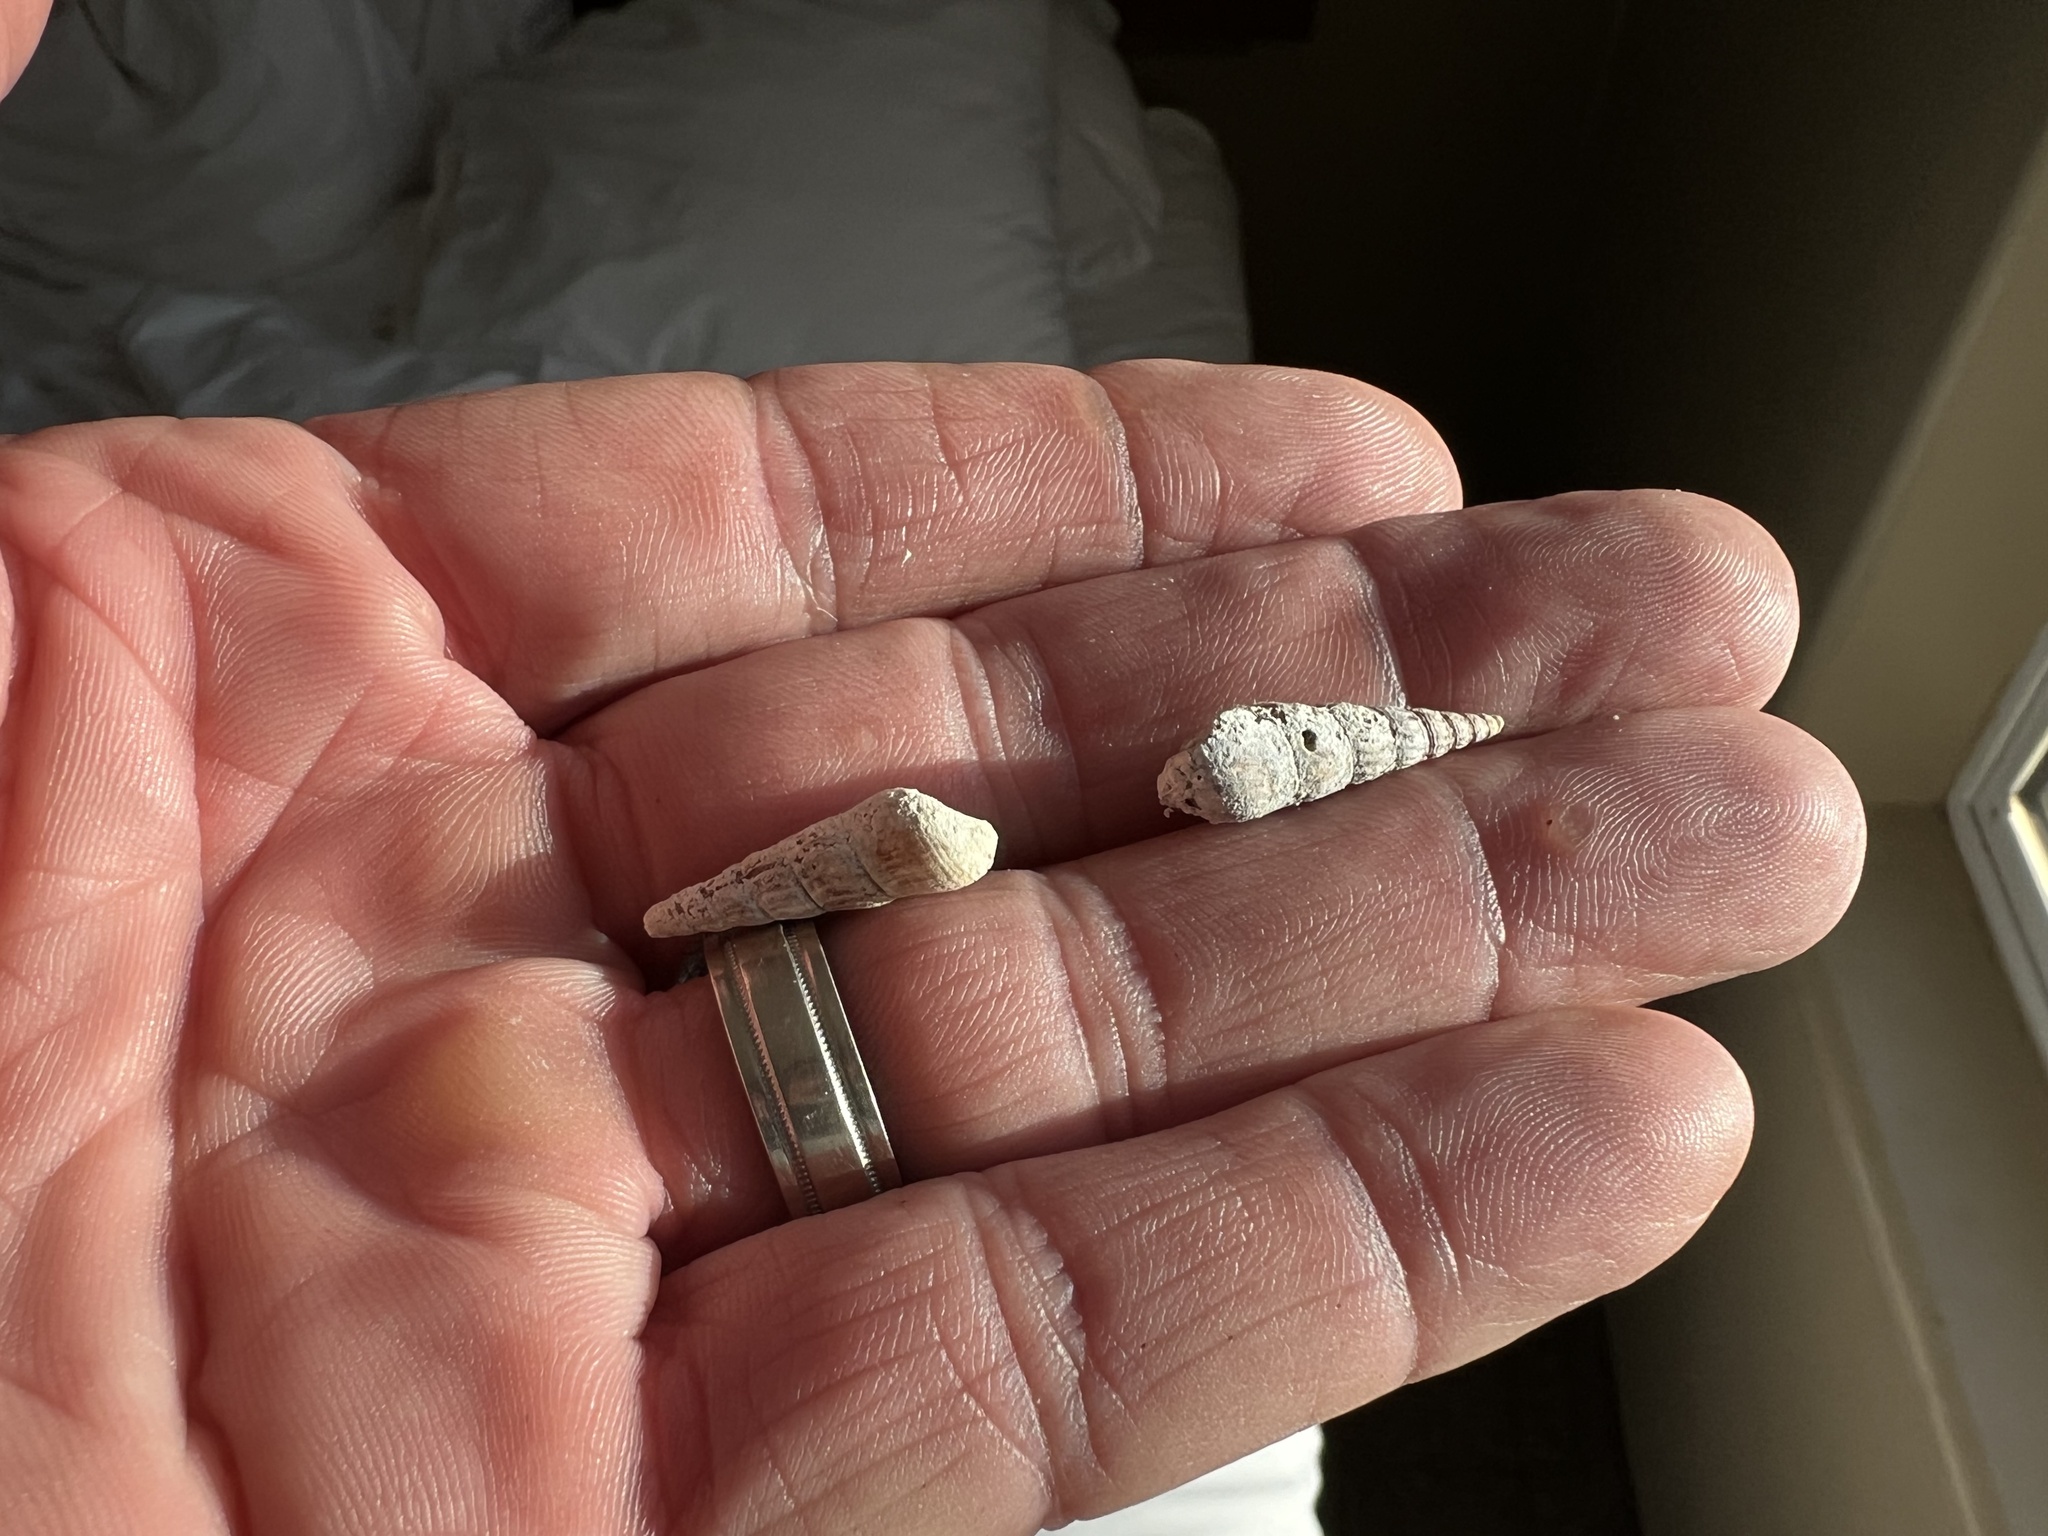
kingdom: Animalia
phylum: Mollusca
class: Gastropoda
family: Thiaridae
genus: Melanoides
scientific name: Melanoides tuberculata
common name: Red-rim melania
